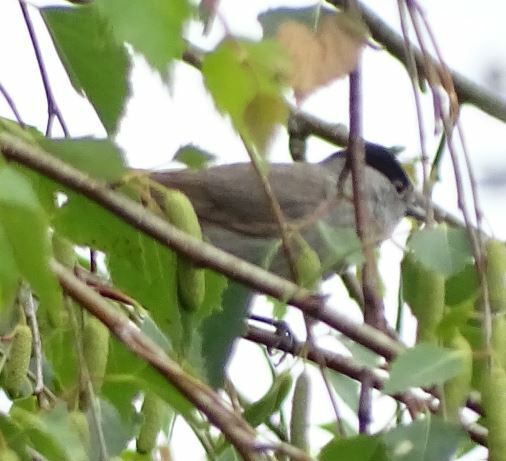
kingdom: Animalia
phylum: Chordata
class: Aves
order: Passeriformes
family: Sylviidae
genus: Sylvia
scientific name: Sylvia atricapilla
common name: Eurasian blackcap
